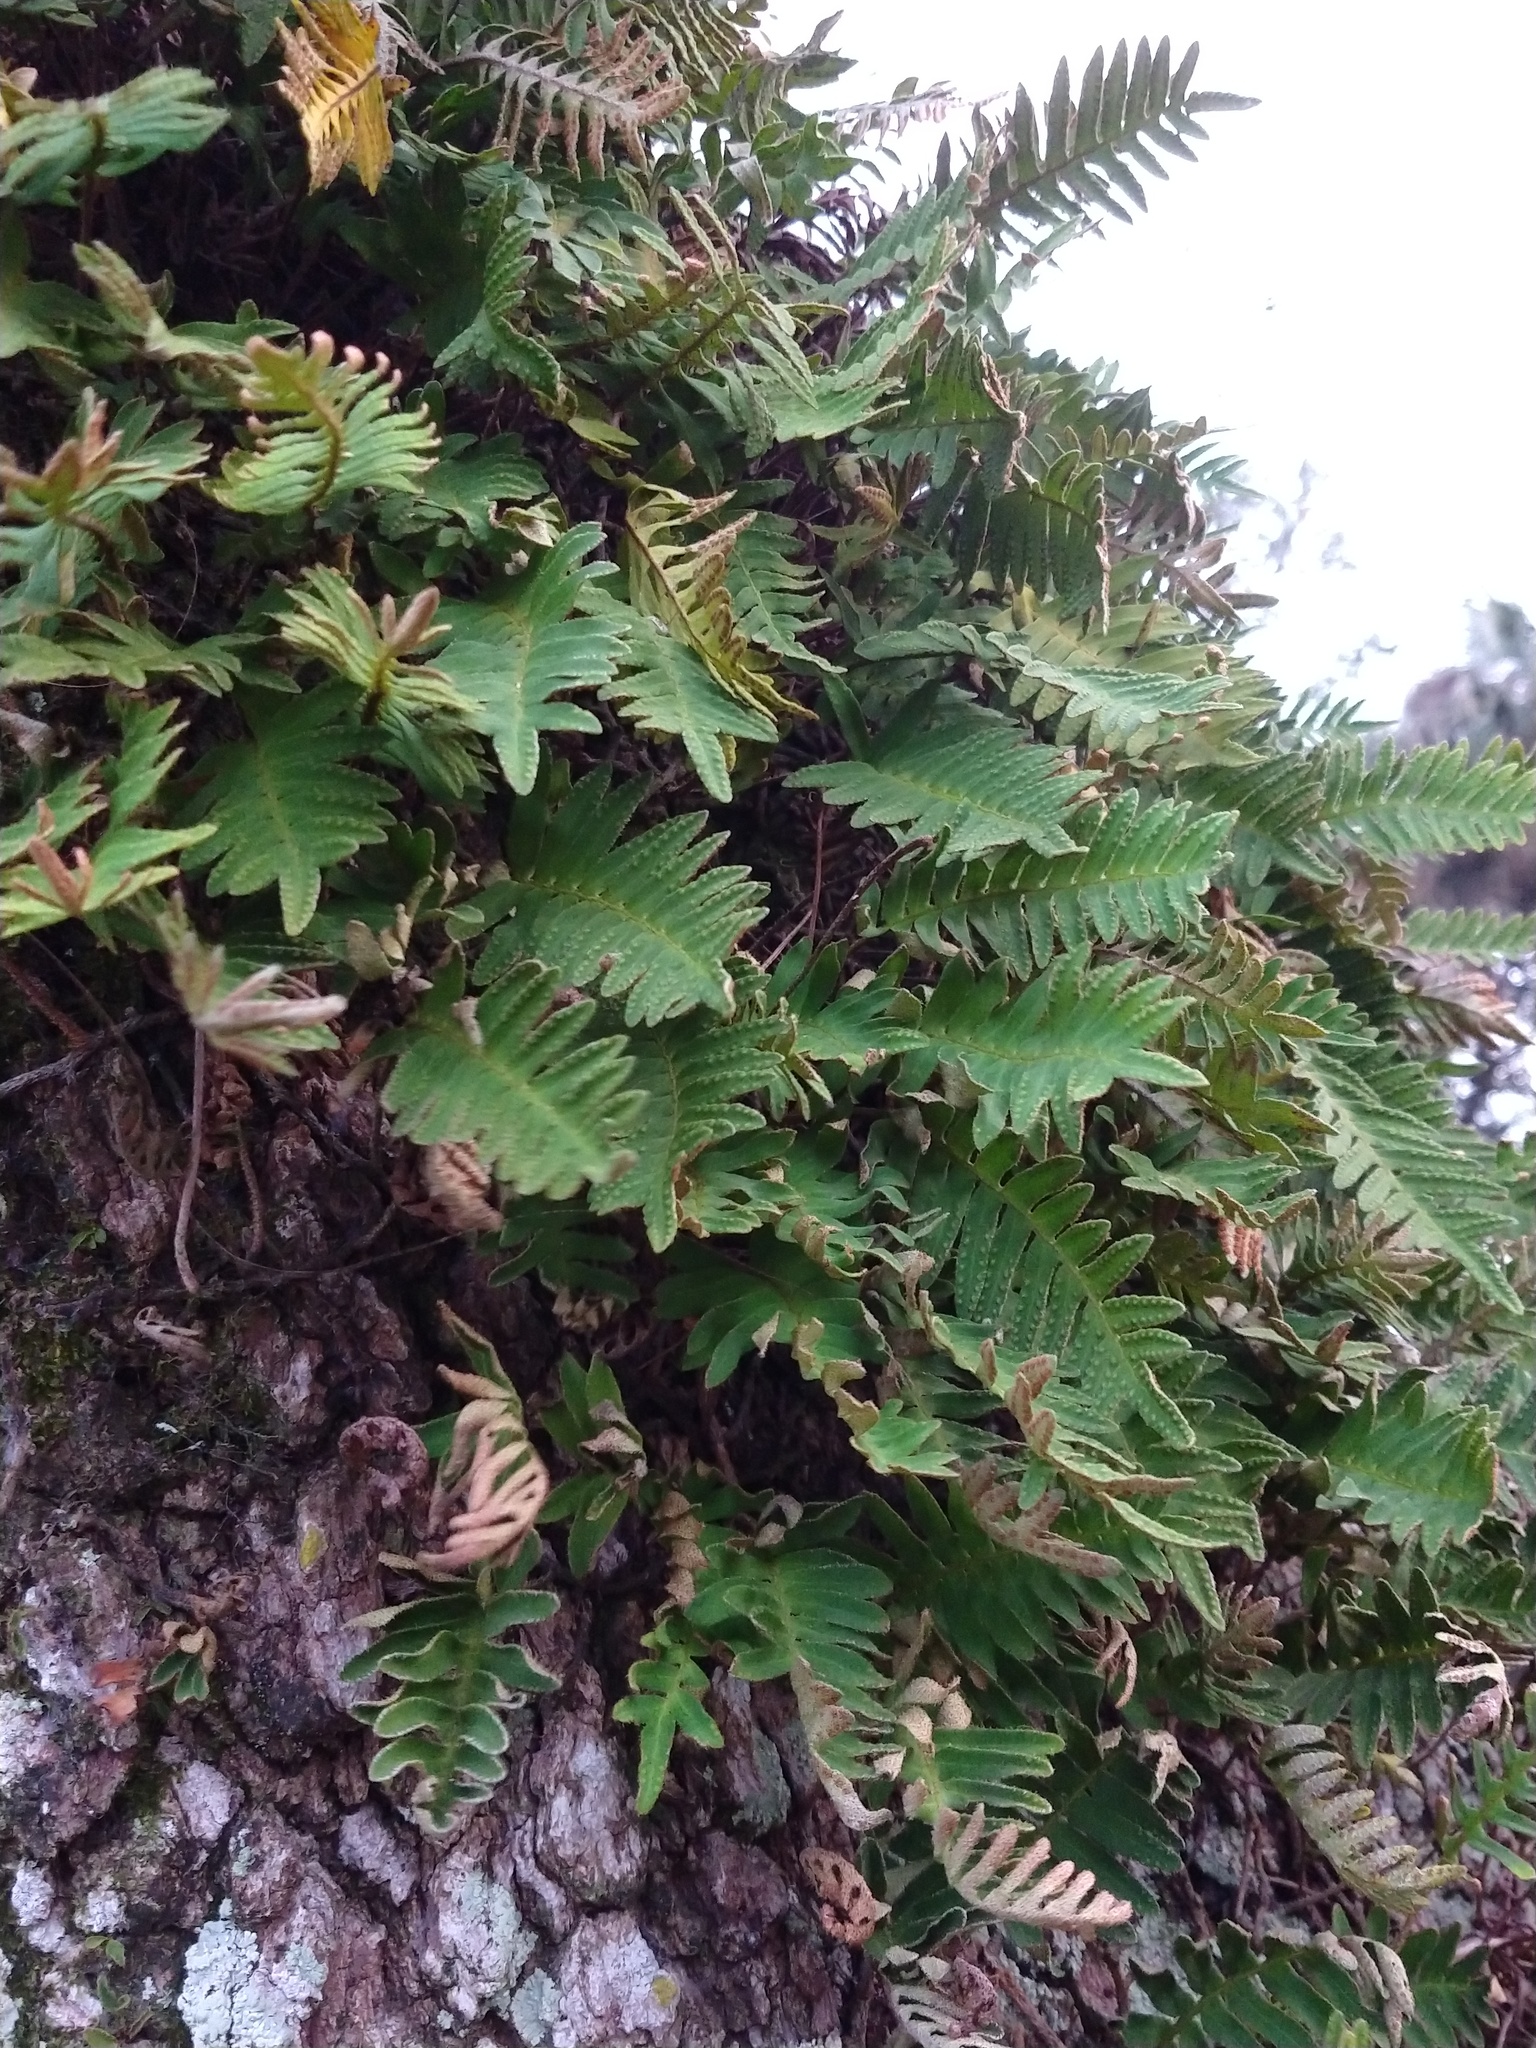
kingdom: Plantae
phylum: Tracheophyta
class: Polypodiopsida
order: Polypodiales
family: Polypodiaceae
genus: Pleopeltis
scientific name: Pleopeltis michauxiana
